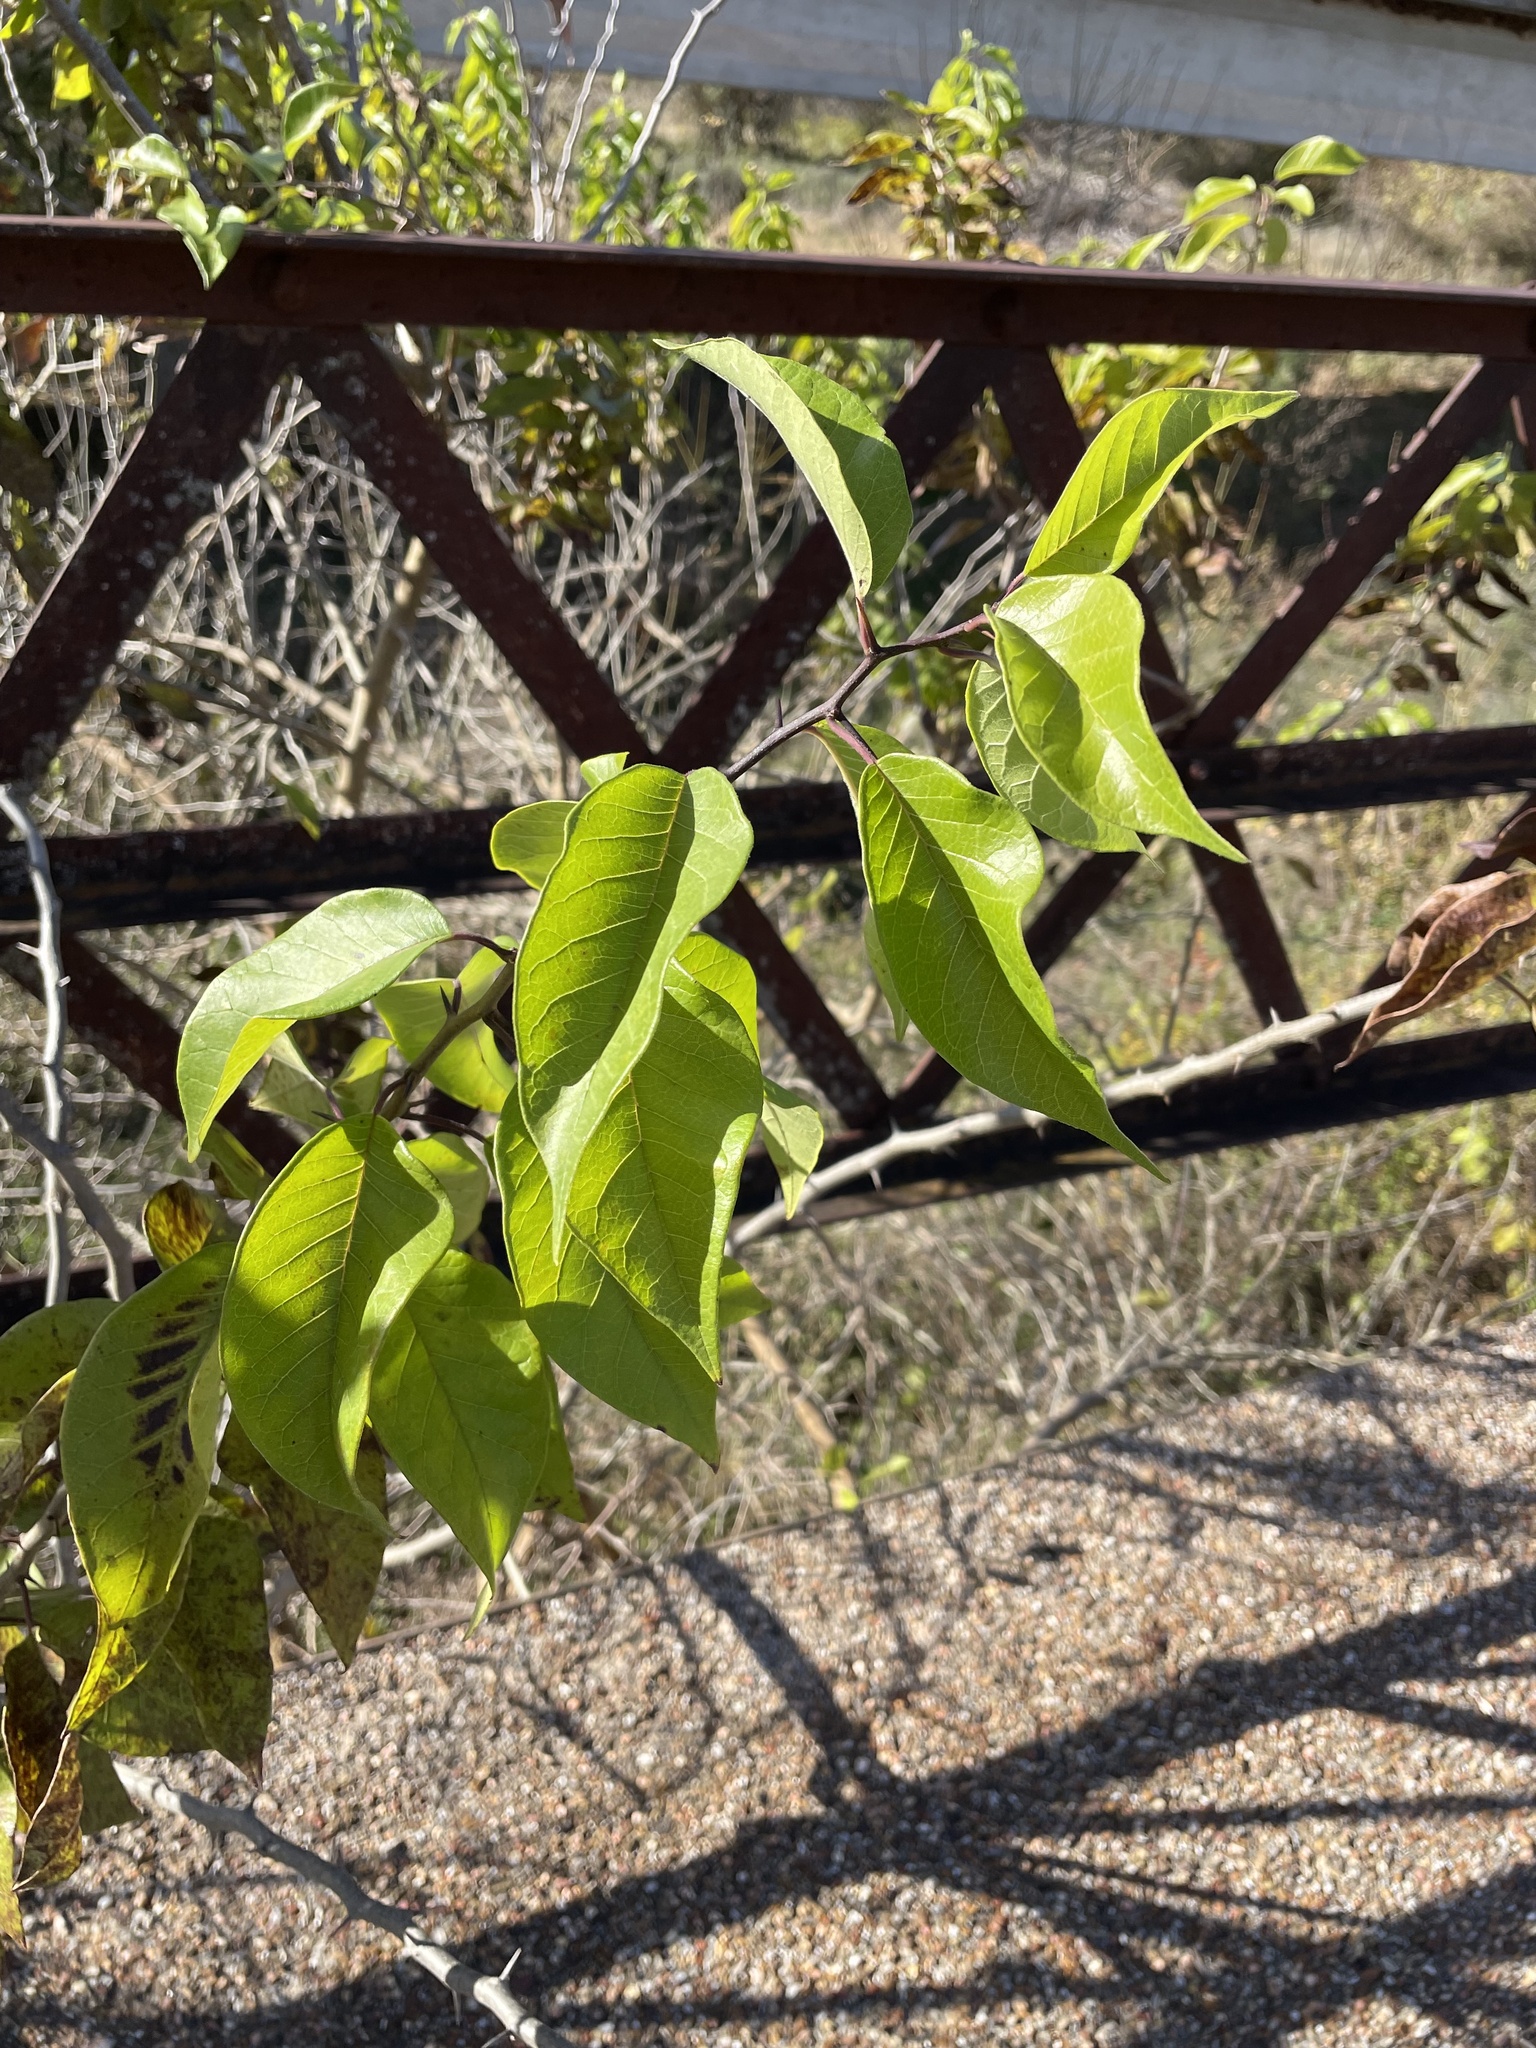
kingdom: Plantae
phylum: Tracheophyta
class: Magnoliopsida
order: Rosales
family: Moraceae
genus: Maclura
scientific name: Maclura pomifera
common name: Osage-orange
